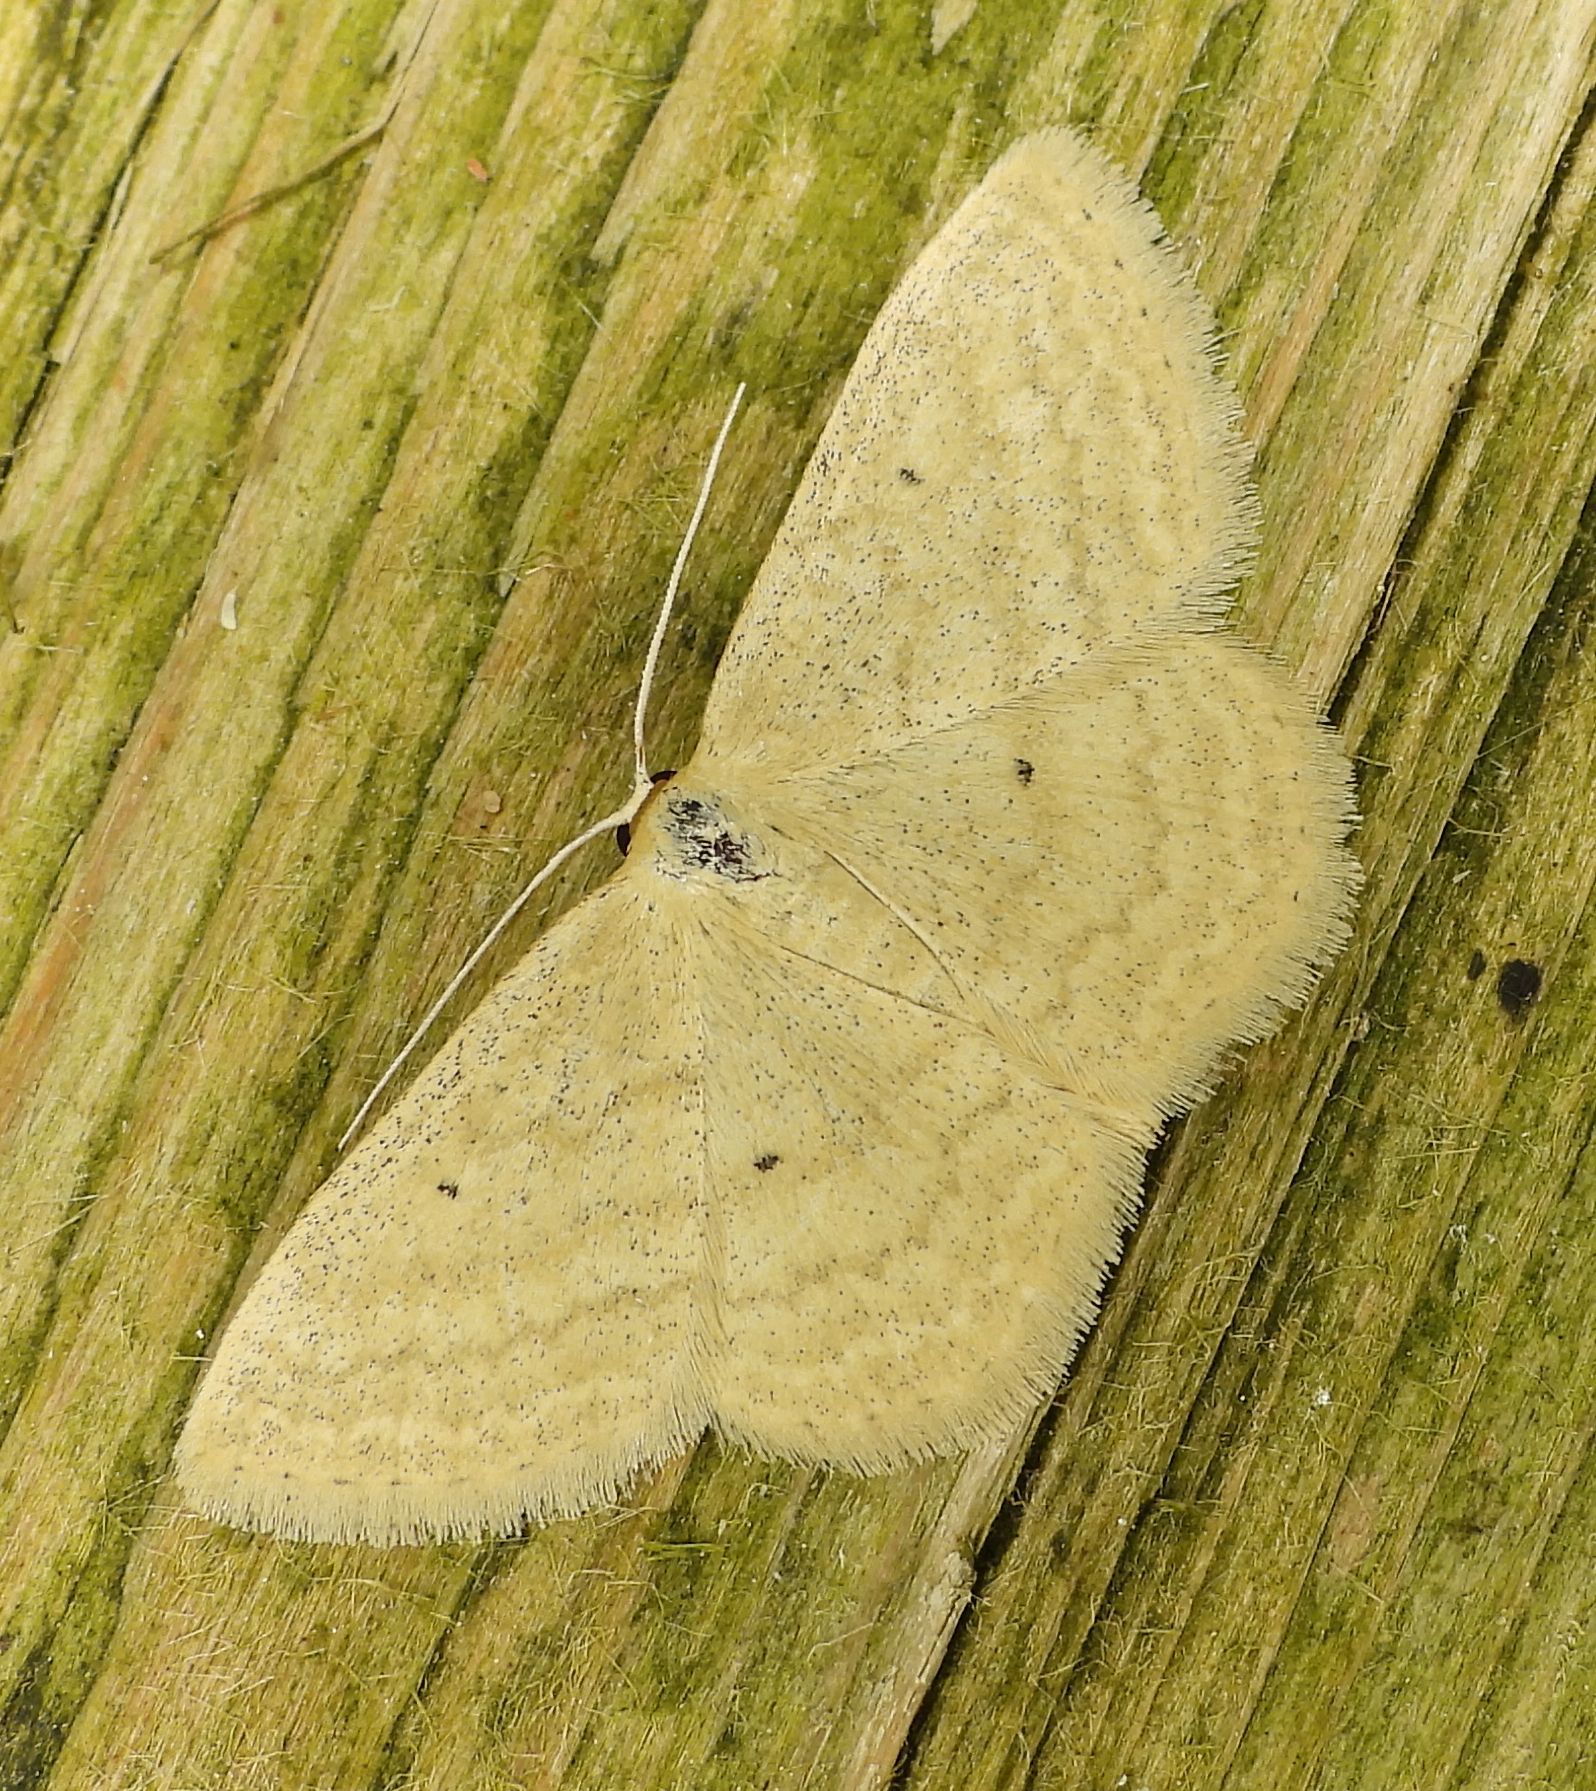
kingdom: Animalia
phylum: Arthropoda
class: Insecta
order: Lepidoptera
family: Geometridae
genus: Scopula
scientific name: Scopula inductata
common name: Soft-lined wave
